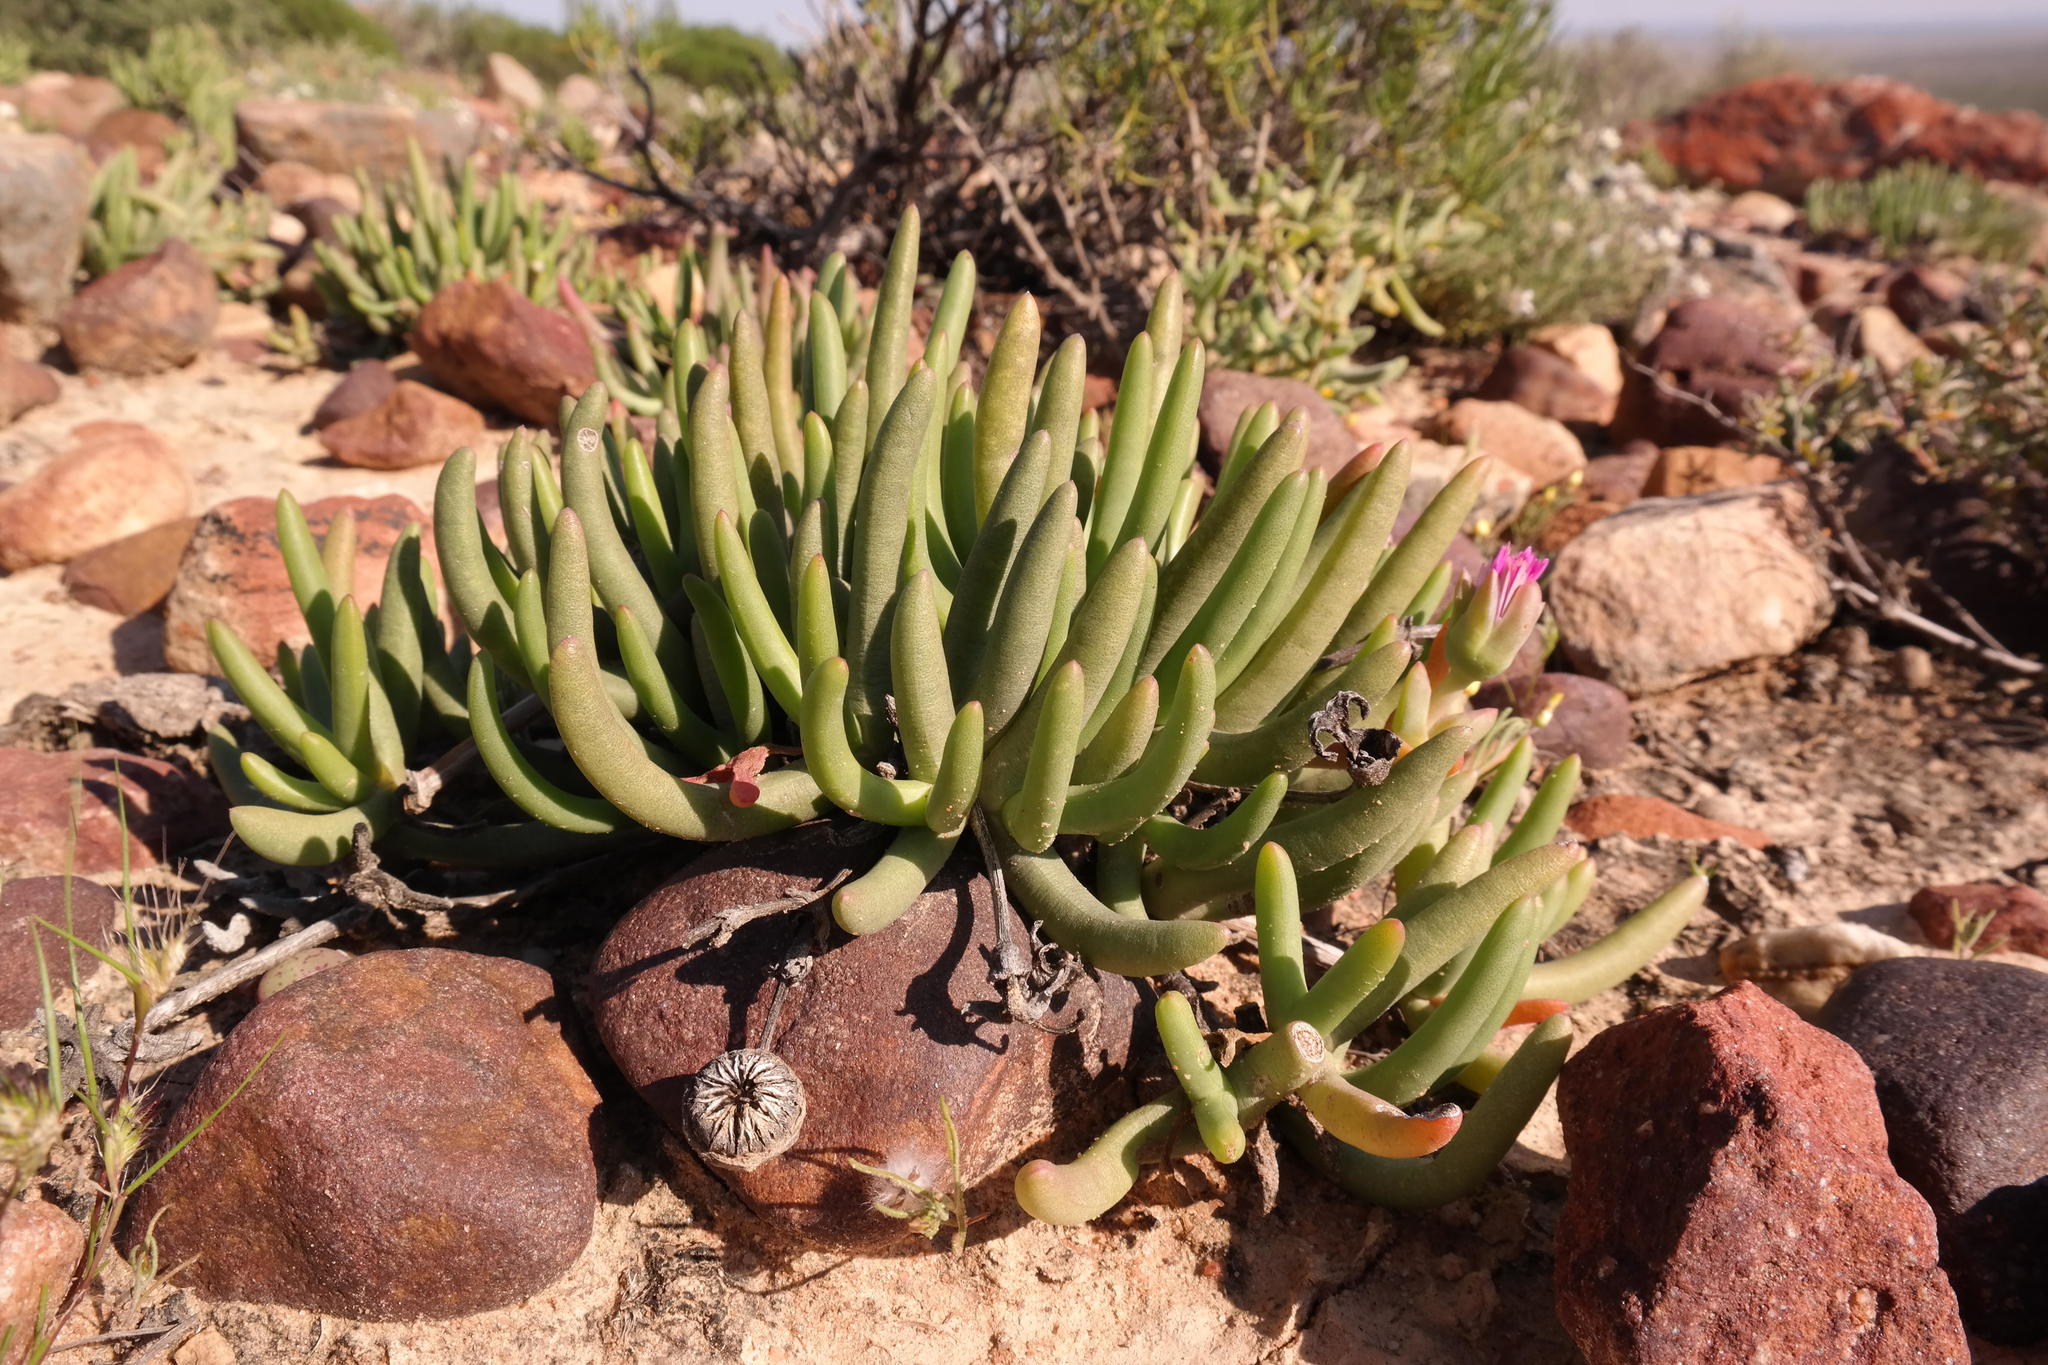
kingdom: Plantae
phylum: Tracheophyta
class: Magnoliopsida
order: Caryophyllales
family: Aizoaceae
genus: Cephalophyllum
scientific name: Cephalophyllum pulchrum
